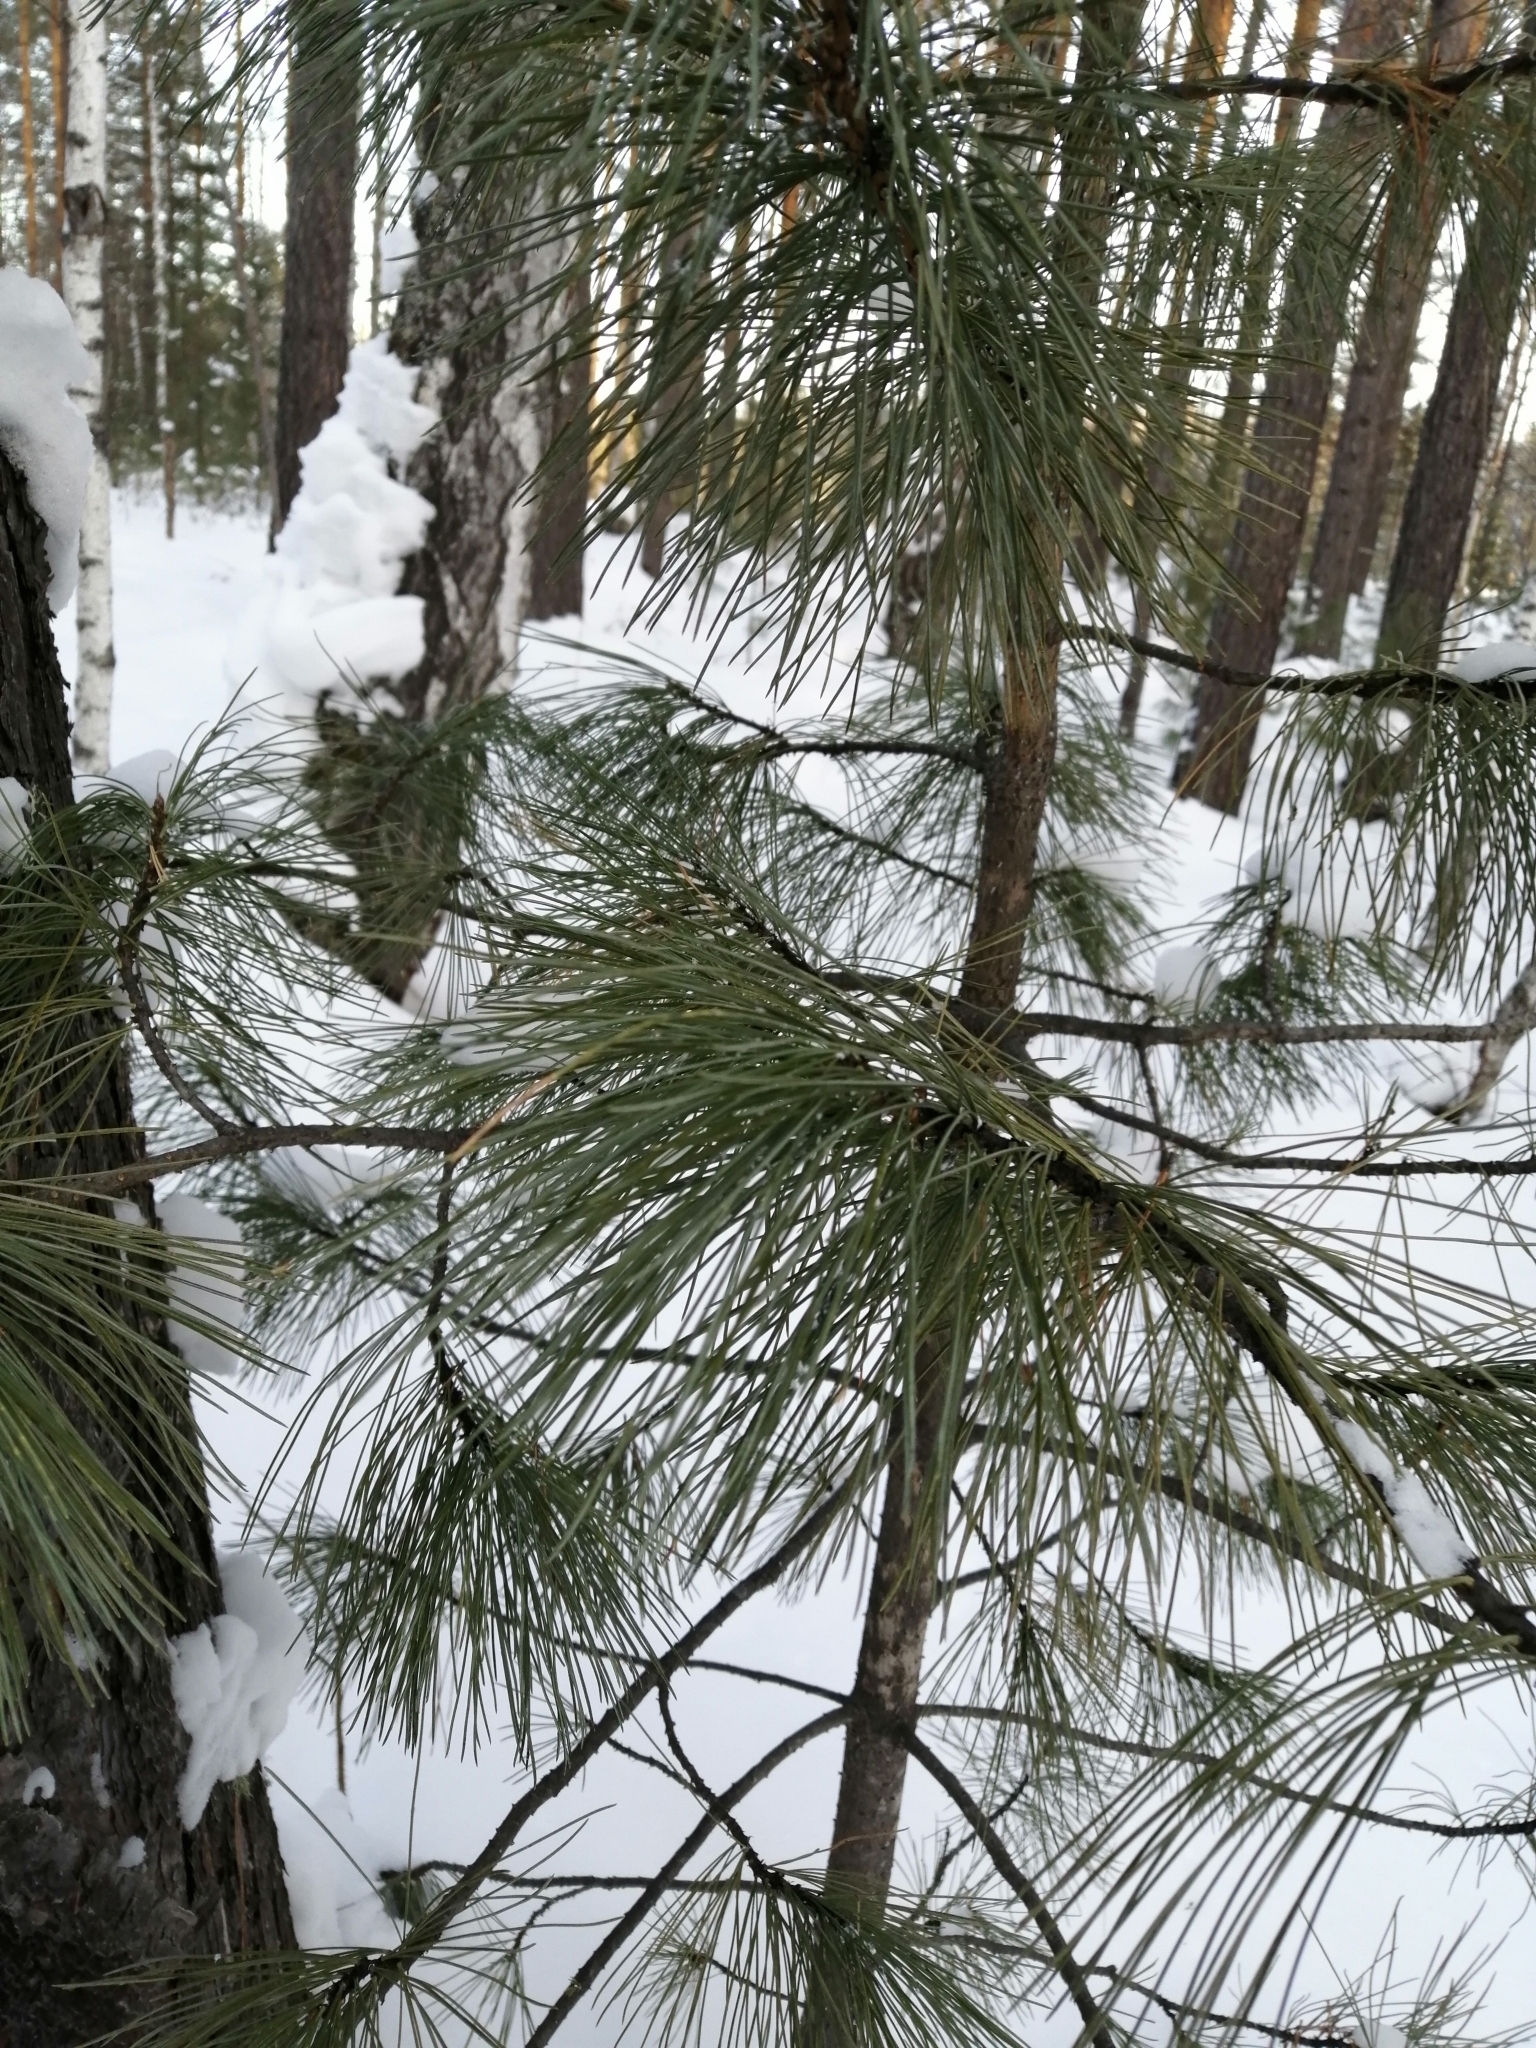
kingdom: Plantae
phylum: Tracheophyta
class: Pinopsida
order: Pinales
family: Pinaceae
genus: Pinus
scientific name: Pinus sibirica
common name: Siberian pine
